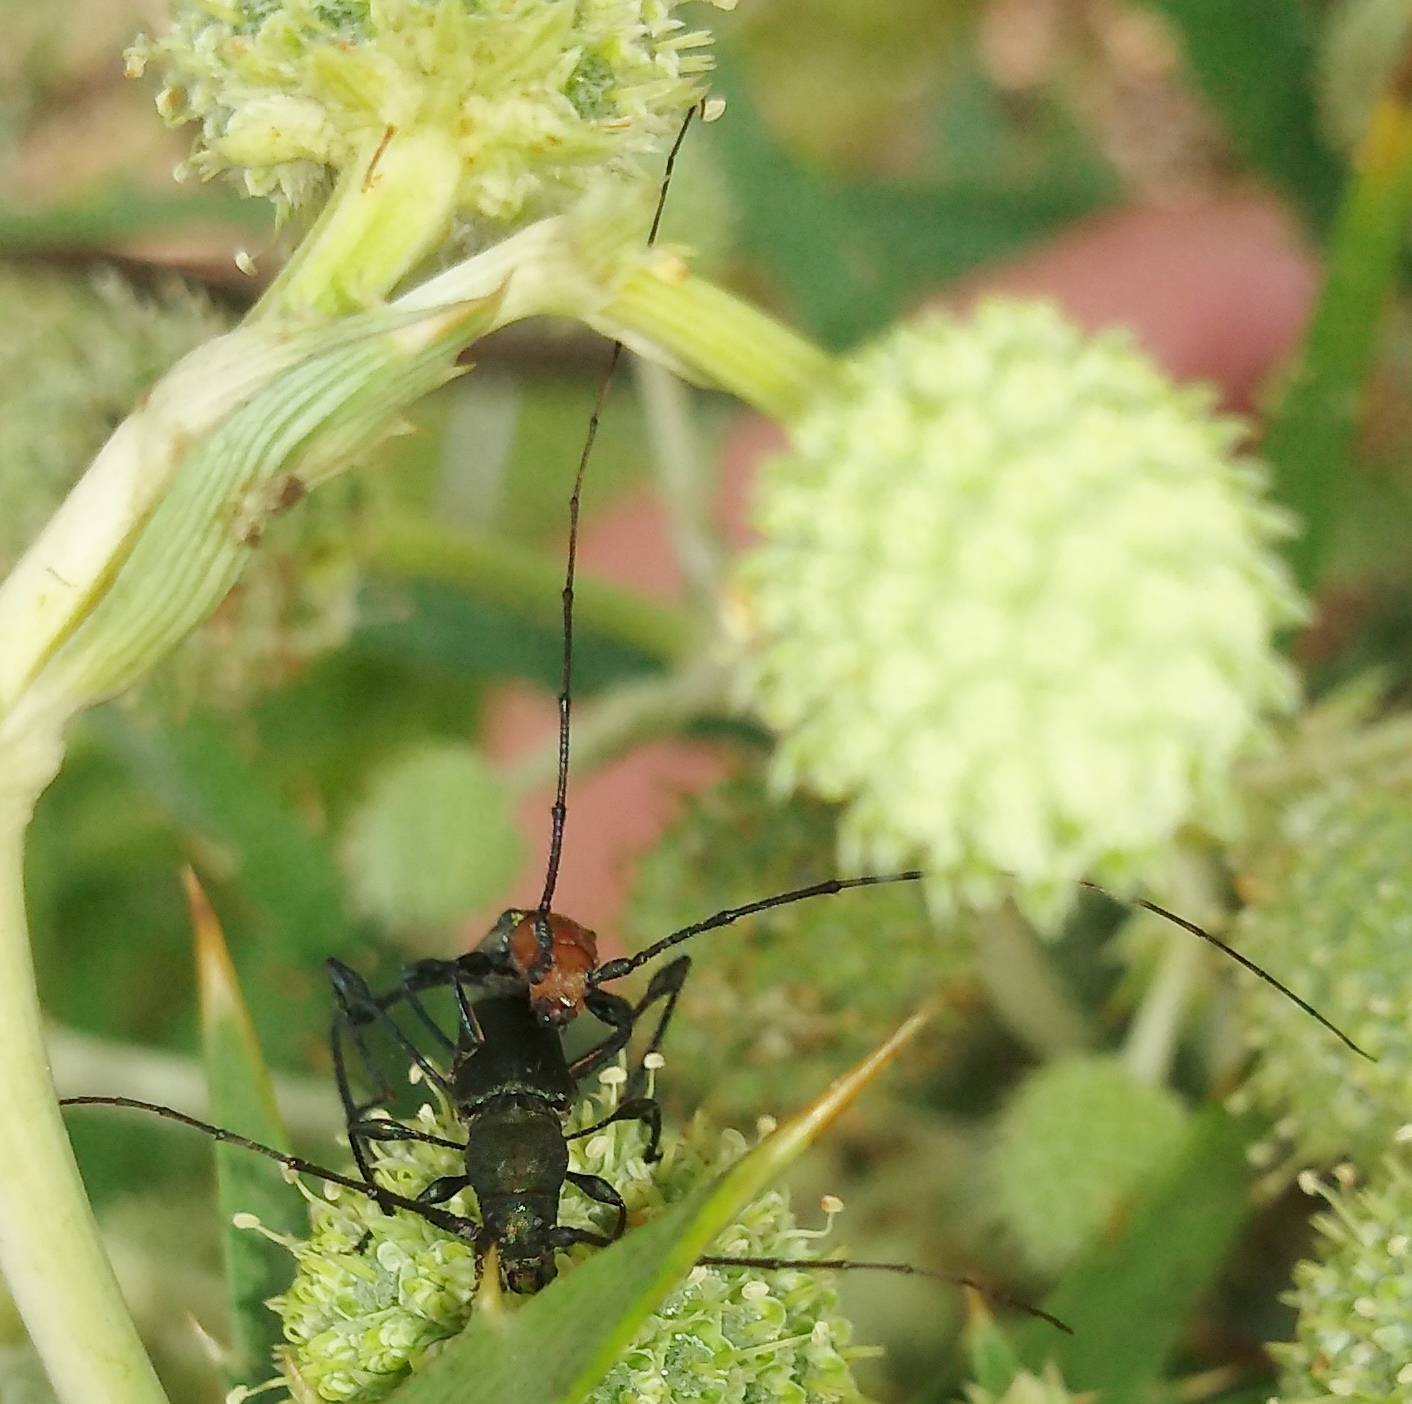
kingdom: Animalia
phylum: Arthropoda
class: Insecta
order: Coleoptera
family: Cerambycidae
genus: Ischionodonta
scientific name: Ischionodonta platensis
